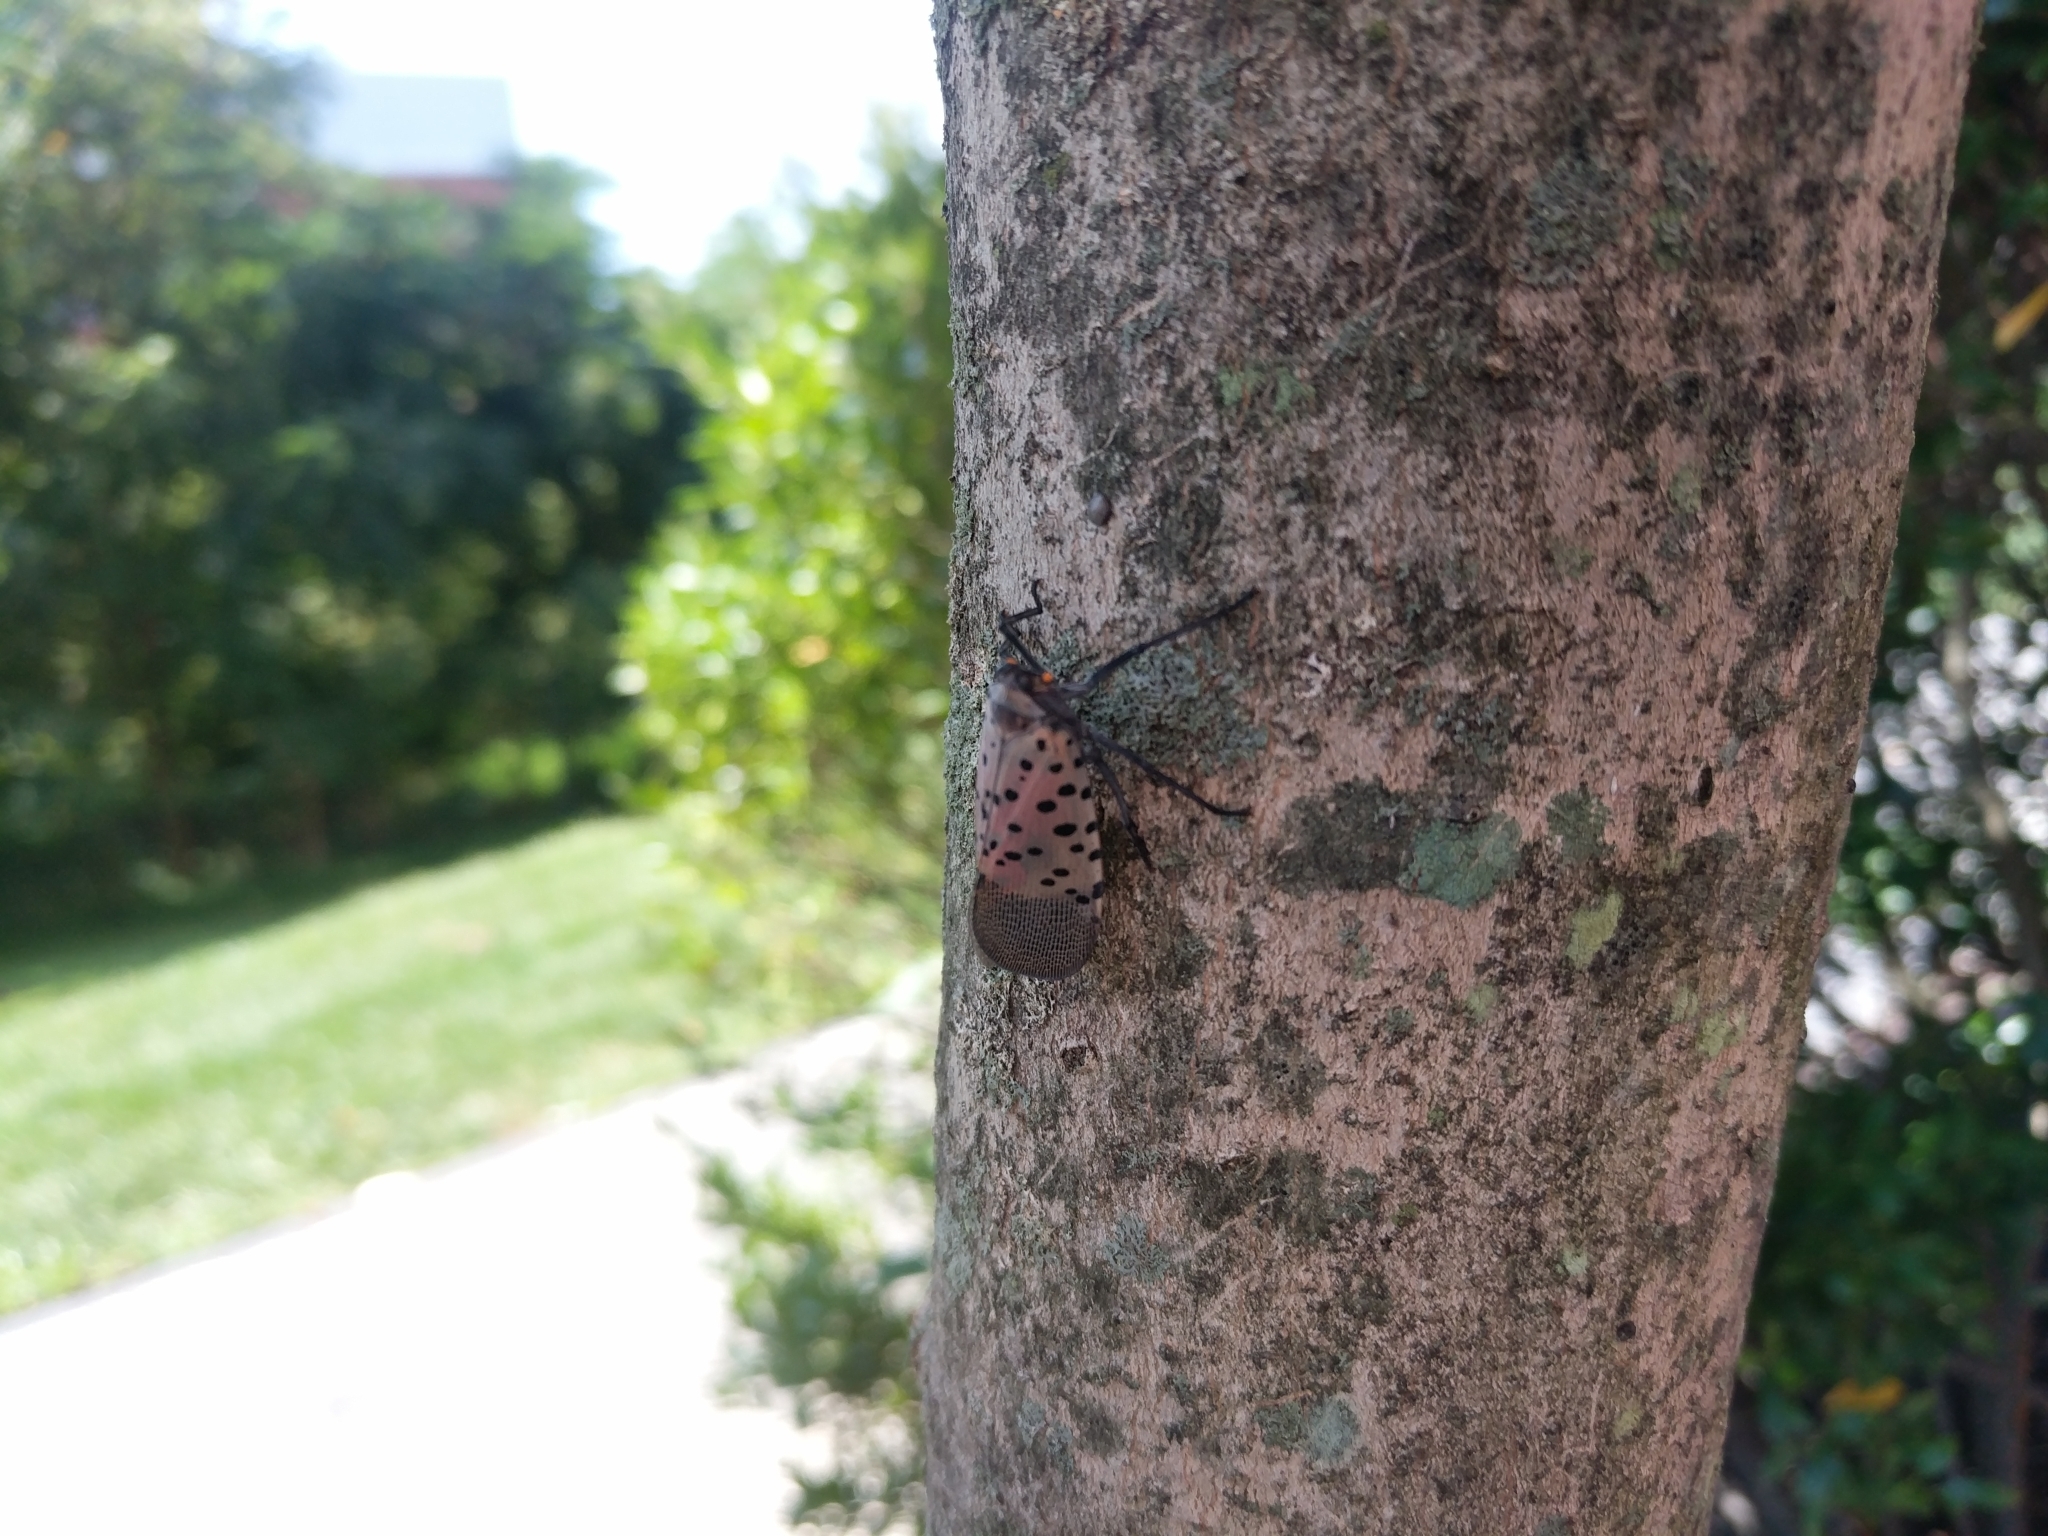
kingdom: Animalia
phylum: Arthropoda
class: Insecta
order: Hemiptera
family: Fulgoridae
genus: Lycorma
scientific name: Lycorma delicatula
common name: Spotted lanternfly
